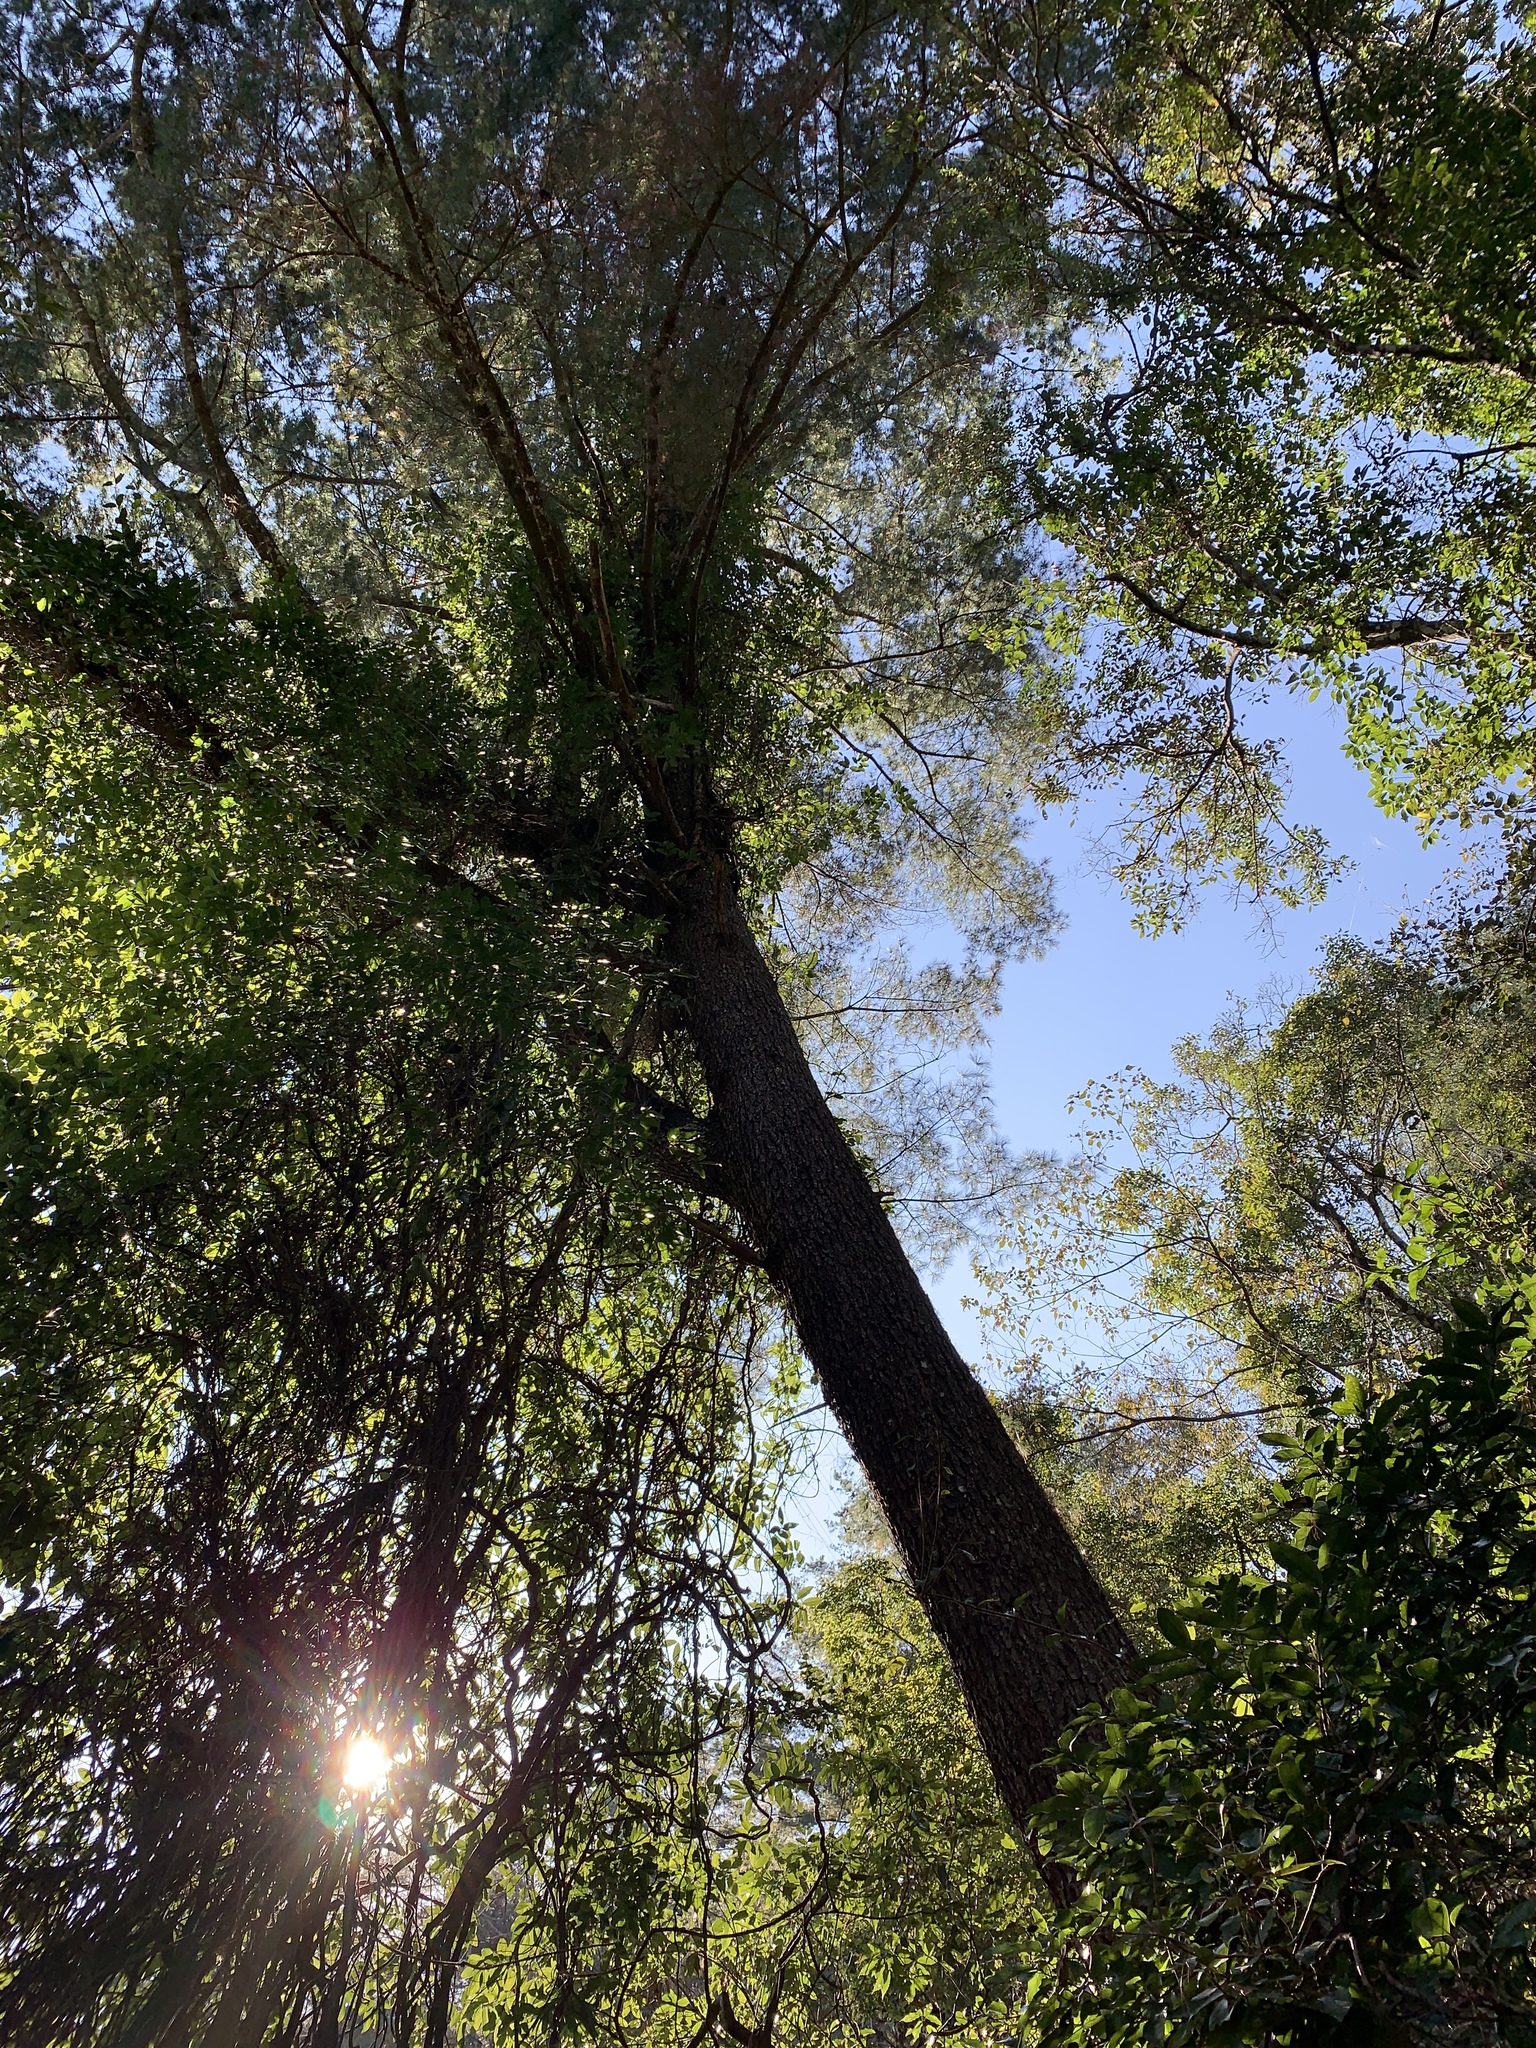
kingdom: Plantae
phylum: Tracheophyta
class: Pinopsida
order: Pinales
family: Pinaceae
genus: Pinus
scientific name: Pinus morrisonicola
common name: Taiwan white pine
